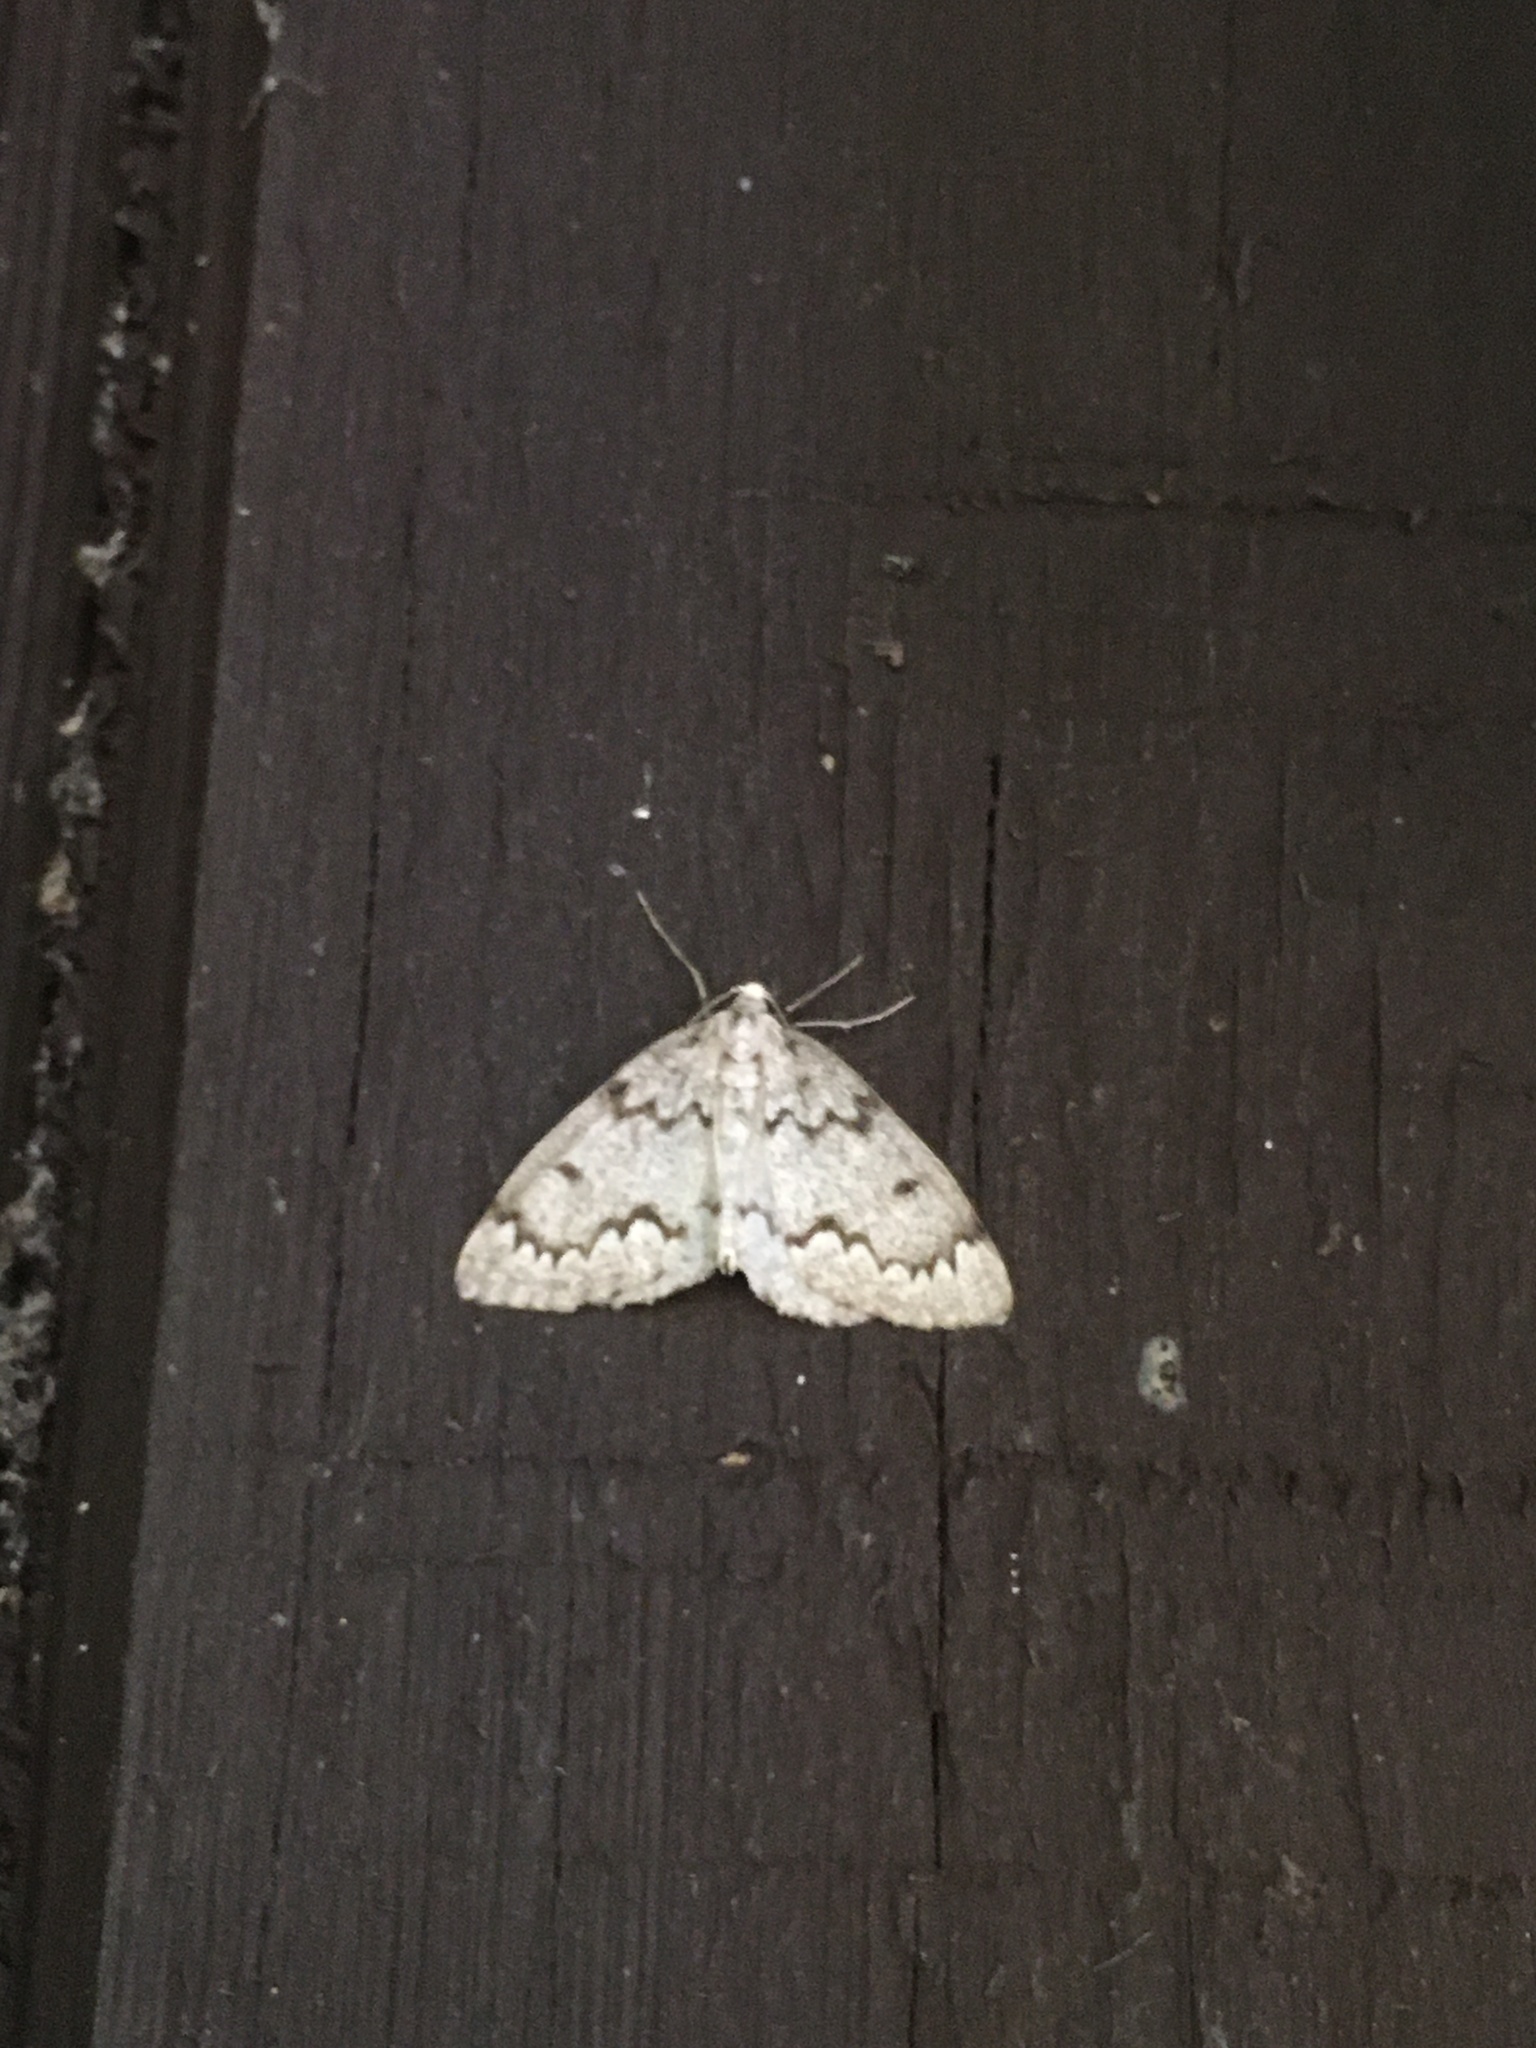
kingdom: Animalia
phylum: Arthropoda
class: Insecta
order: Lepidoptera
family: Geometridae
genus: Nepytia
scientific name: Nepytia canosaria
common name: False hemlock looper
